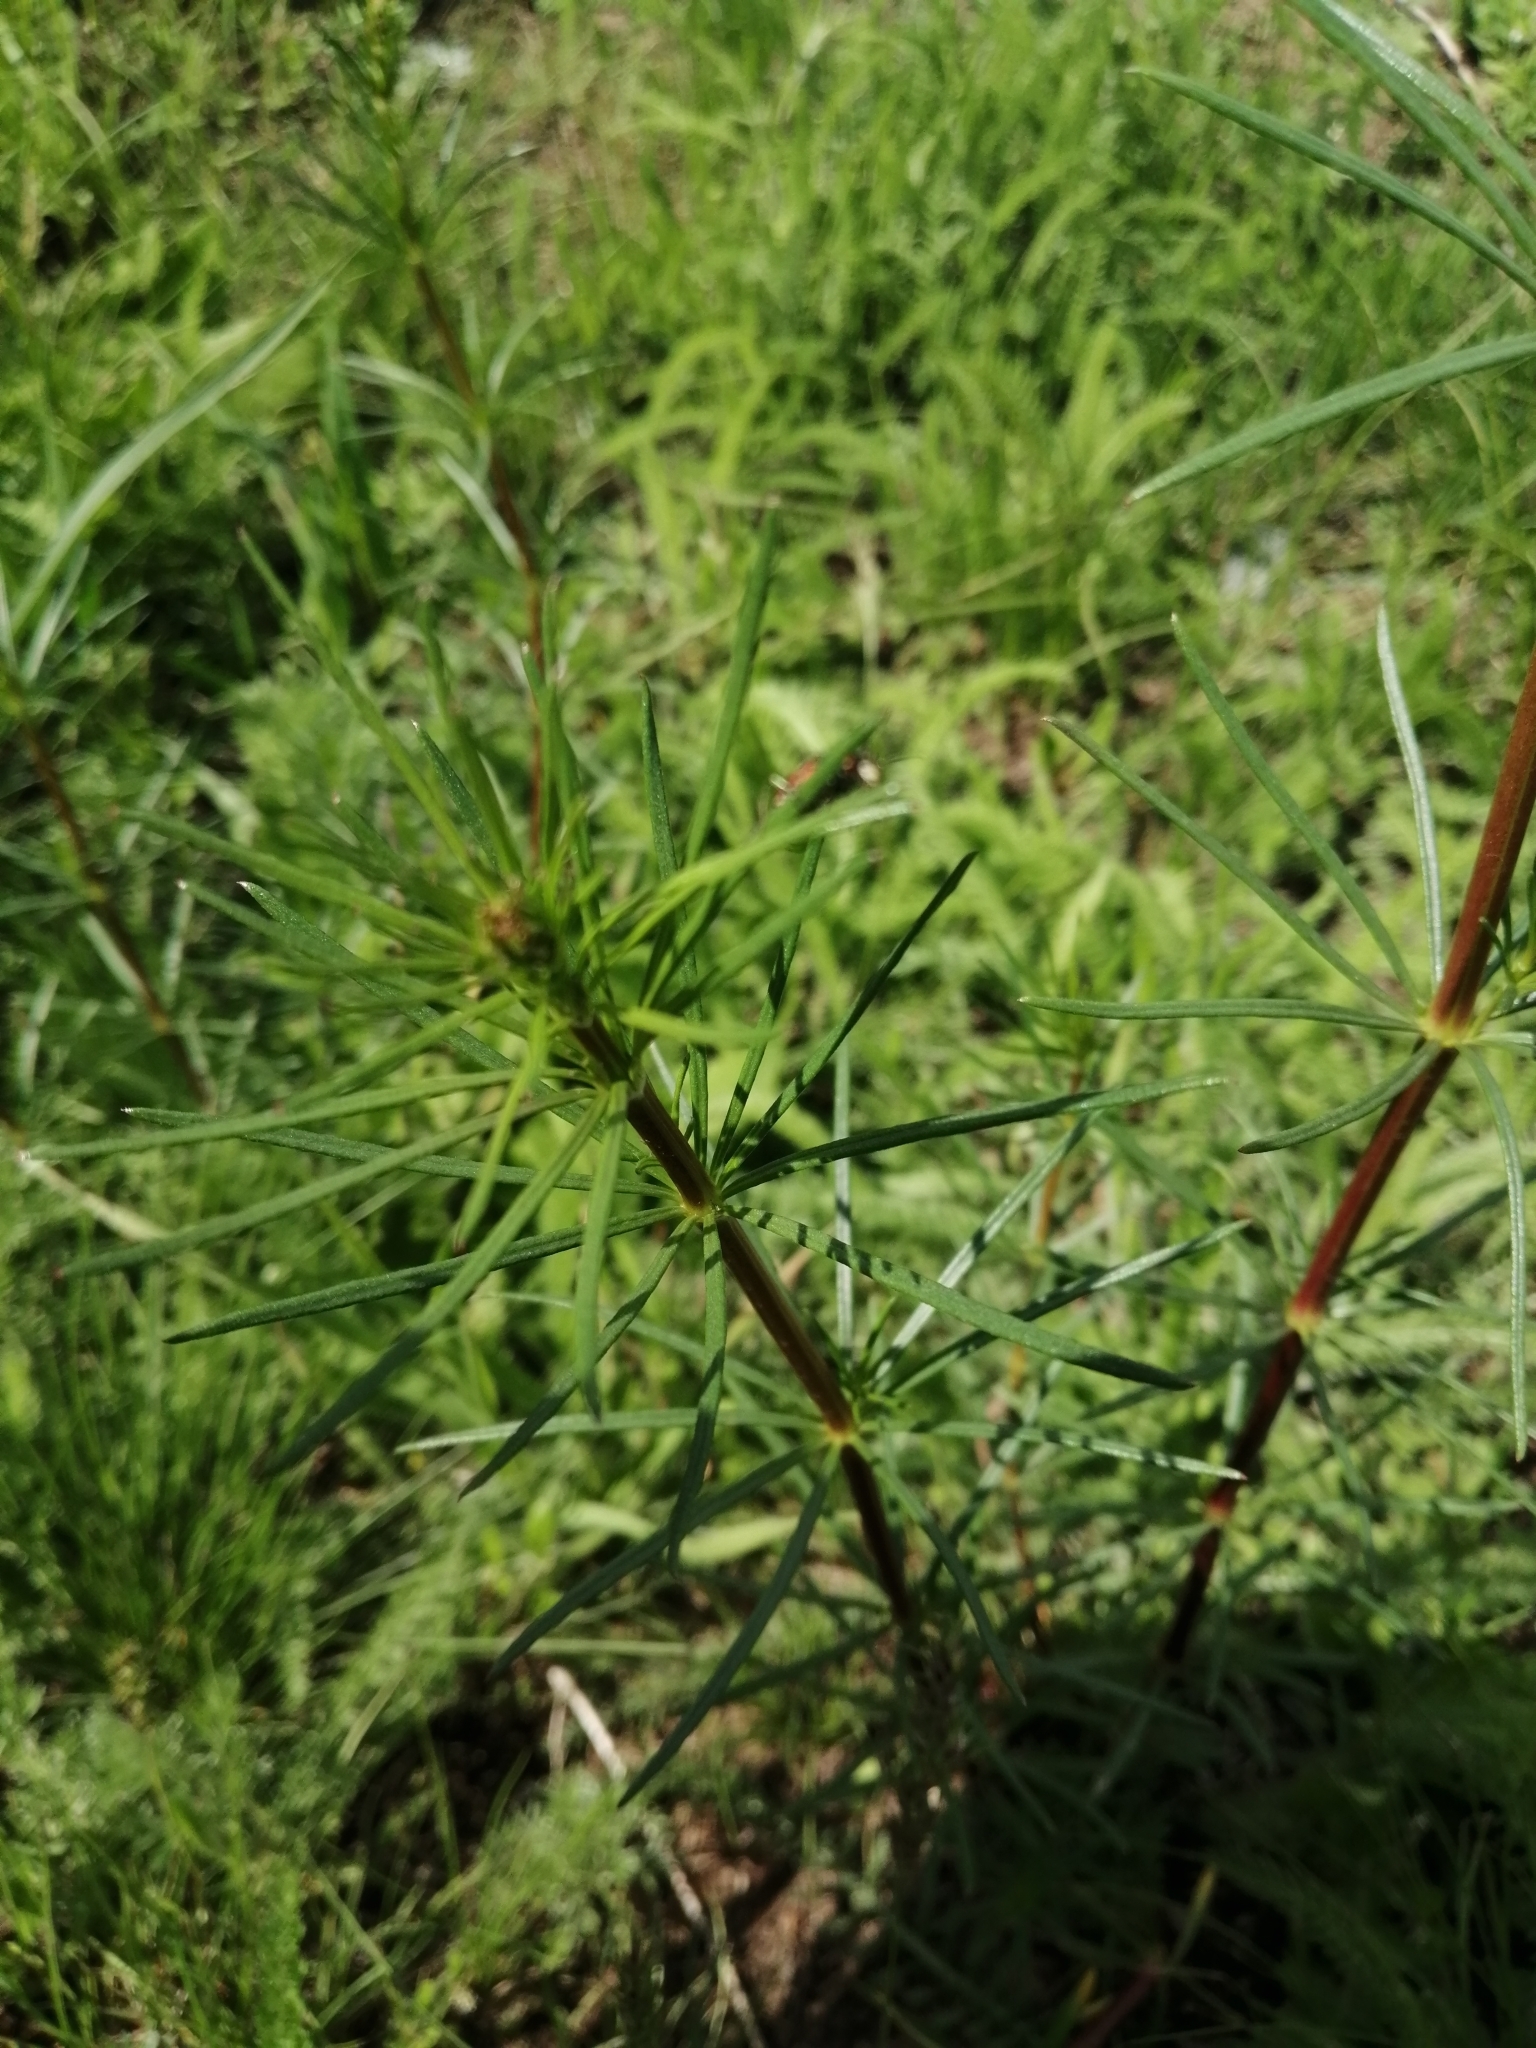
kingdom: Plantae
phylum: Tracheophyta
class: Magnoliopsida
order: Gentianales
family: Rubiaceae
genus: Galium
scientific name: Galium verum
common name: Lady's bedstraw
